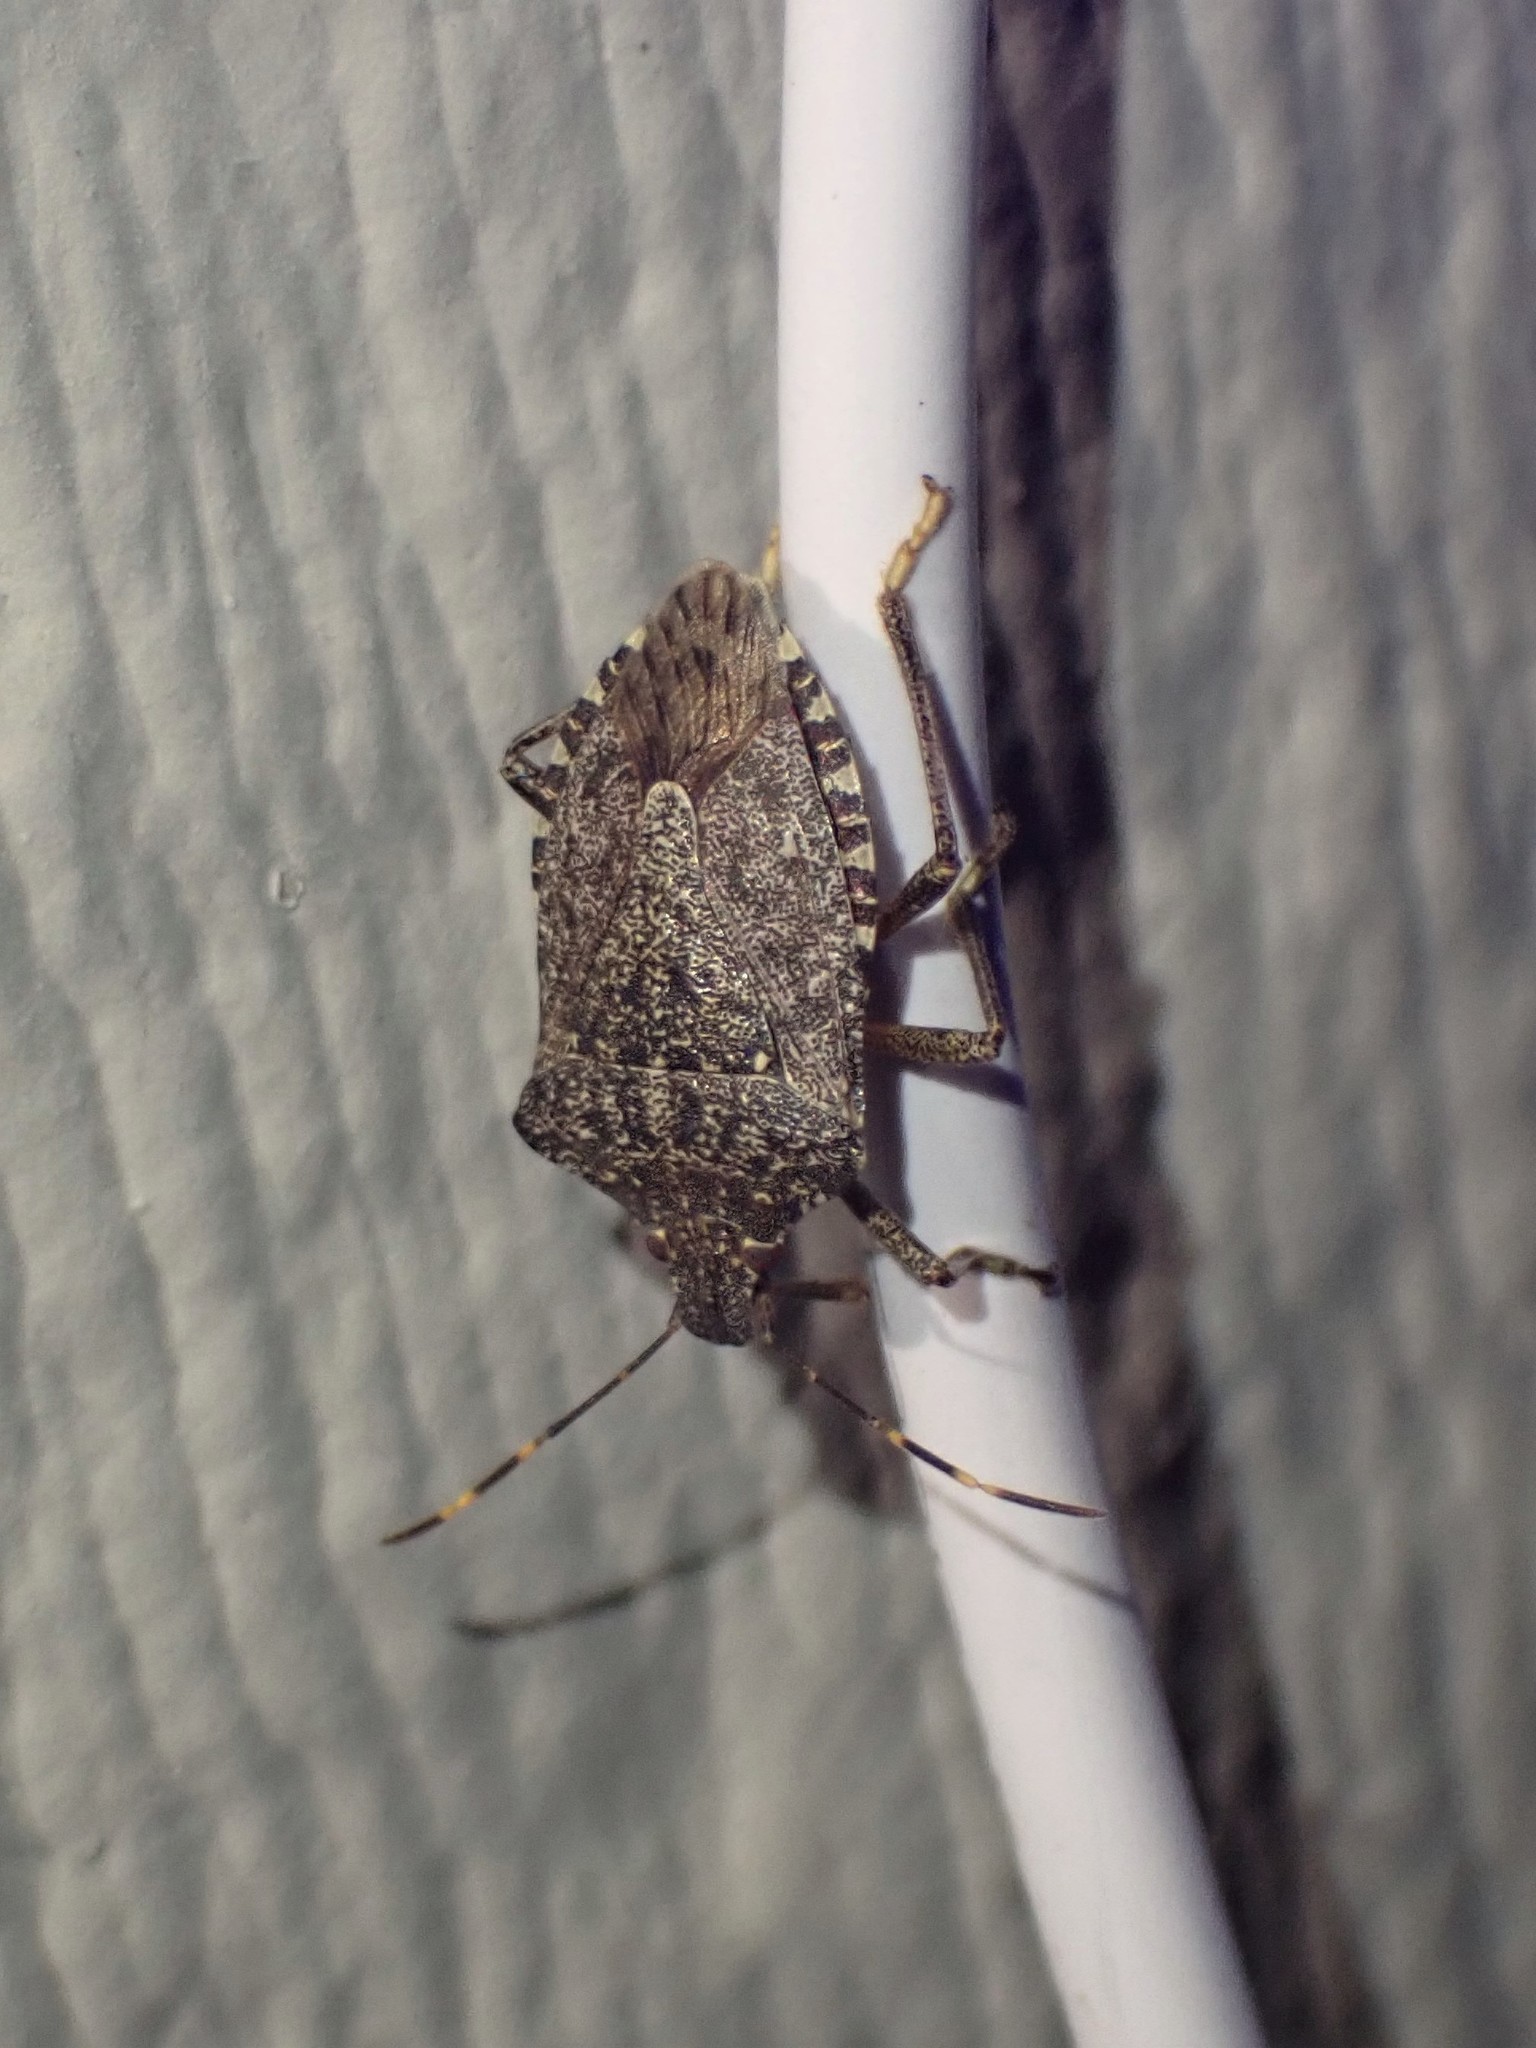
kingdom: Animalia
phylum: Arthropoda
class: Insecta
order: Hemiptera
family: Pentatomidae
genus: Halyomorpha
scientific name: Halyomorpha halys
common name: Brown marmorated stink bug
